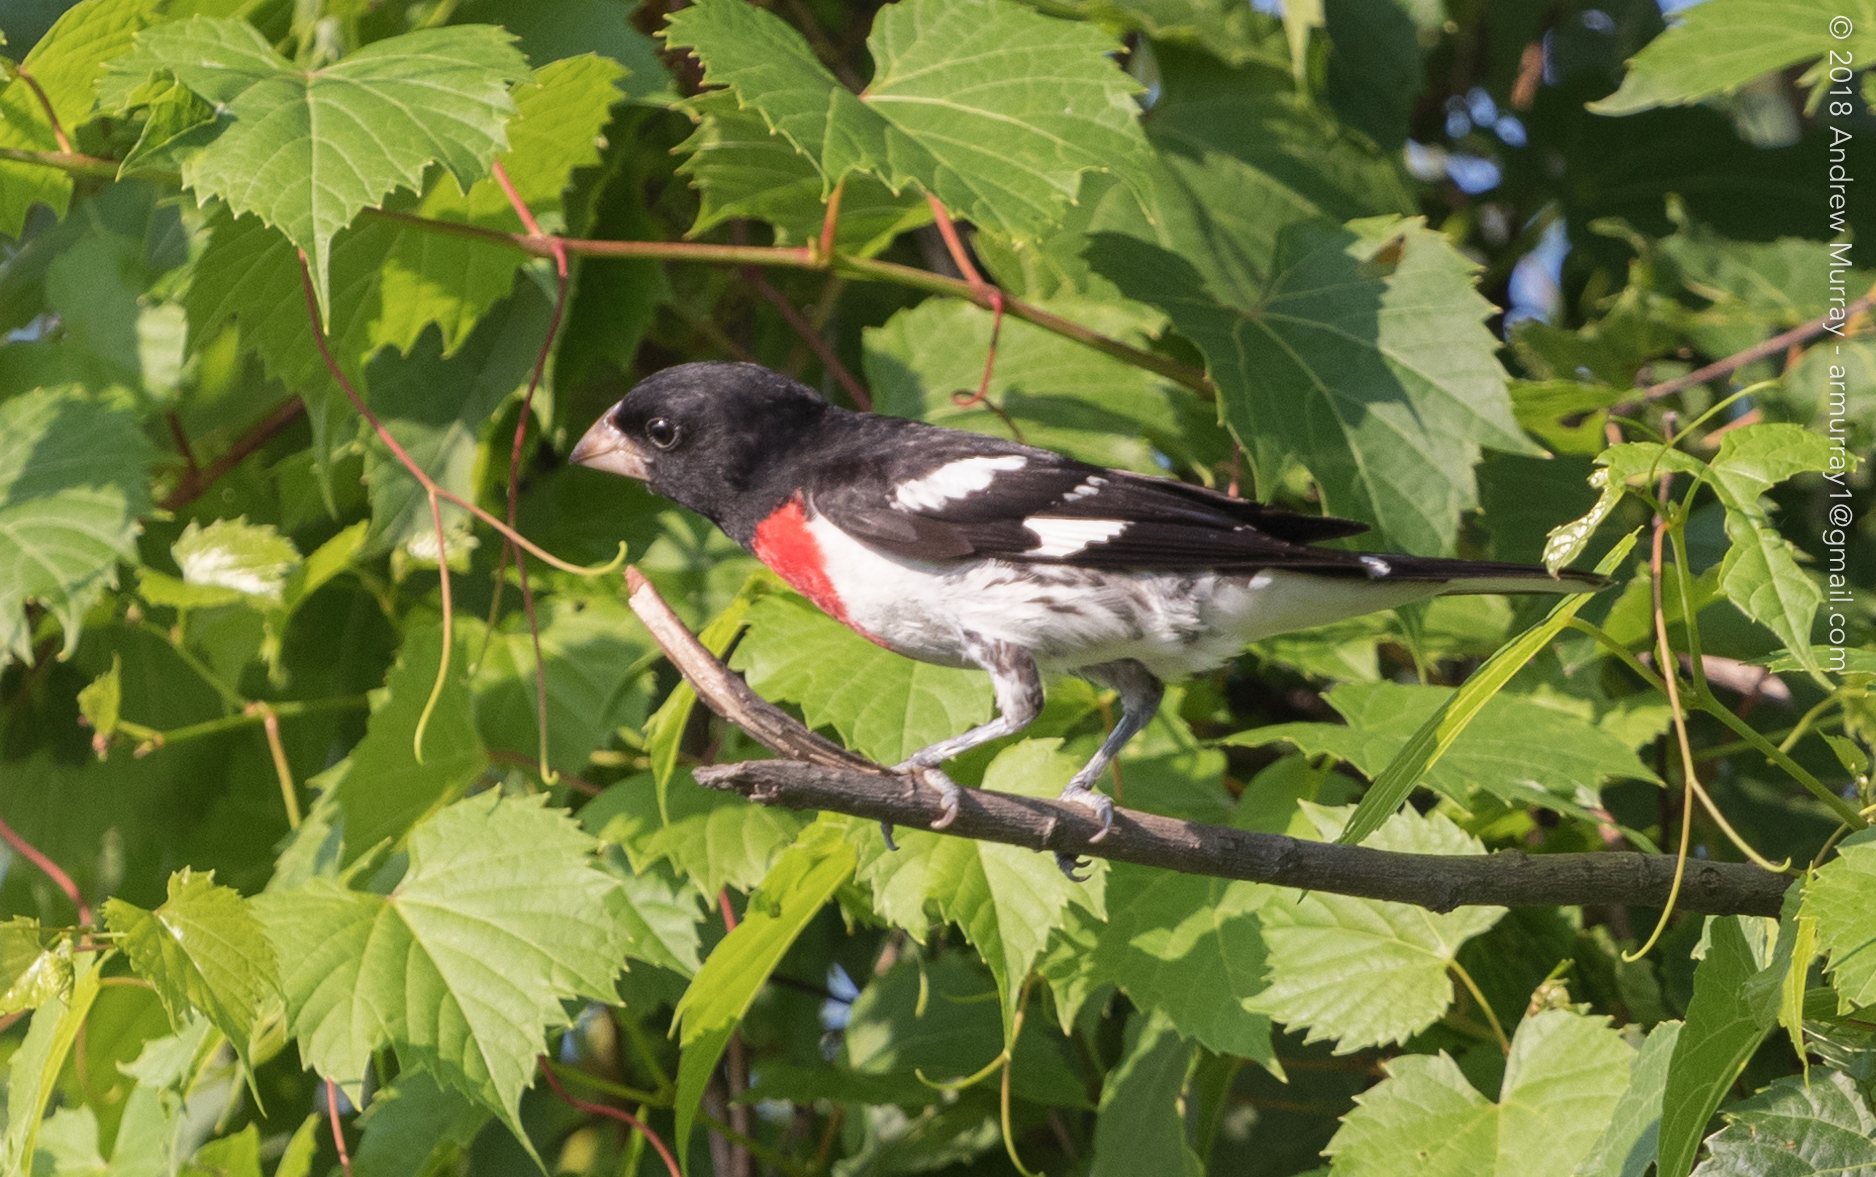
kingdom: Animalia
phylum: Chordata
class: Aves
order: Passeriformes
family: Cardinalidae
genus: Pheucticus
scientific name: Pheucticus ludovicianus
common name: Rose-breasted grosbeak
